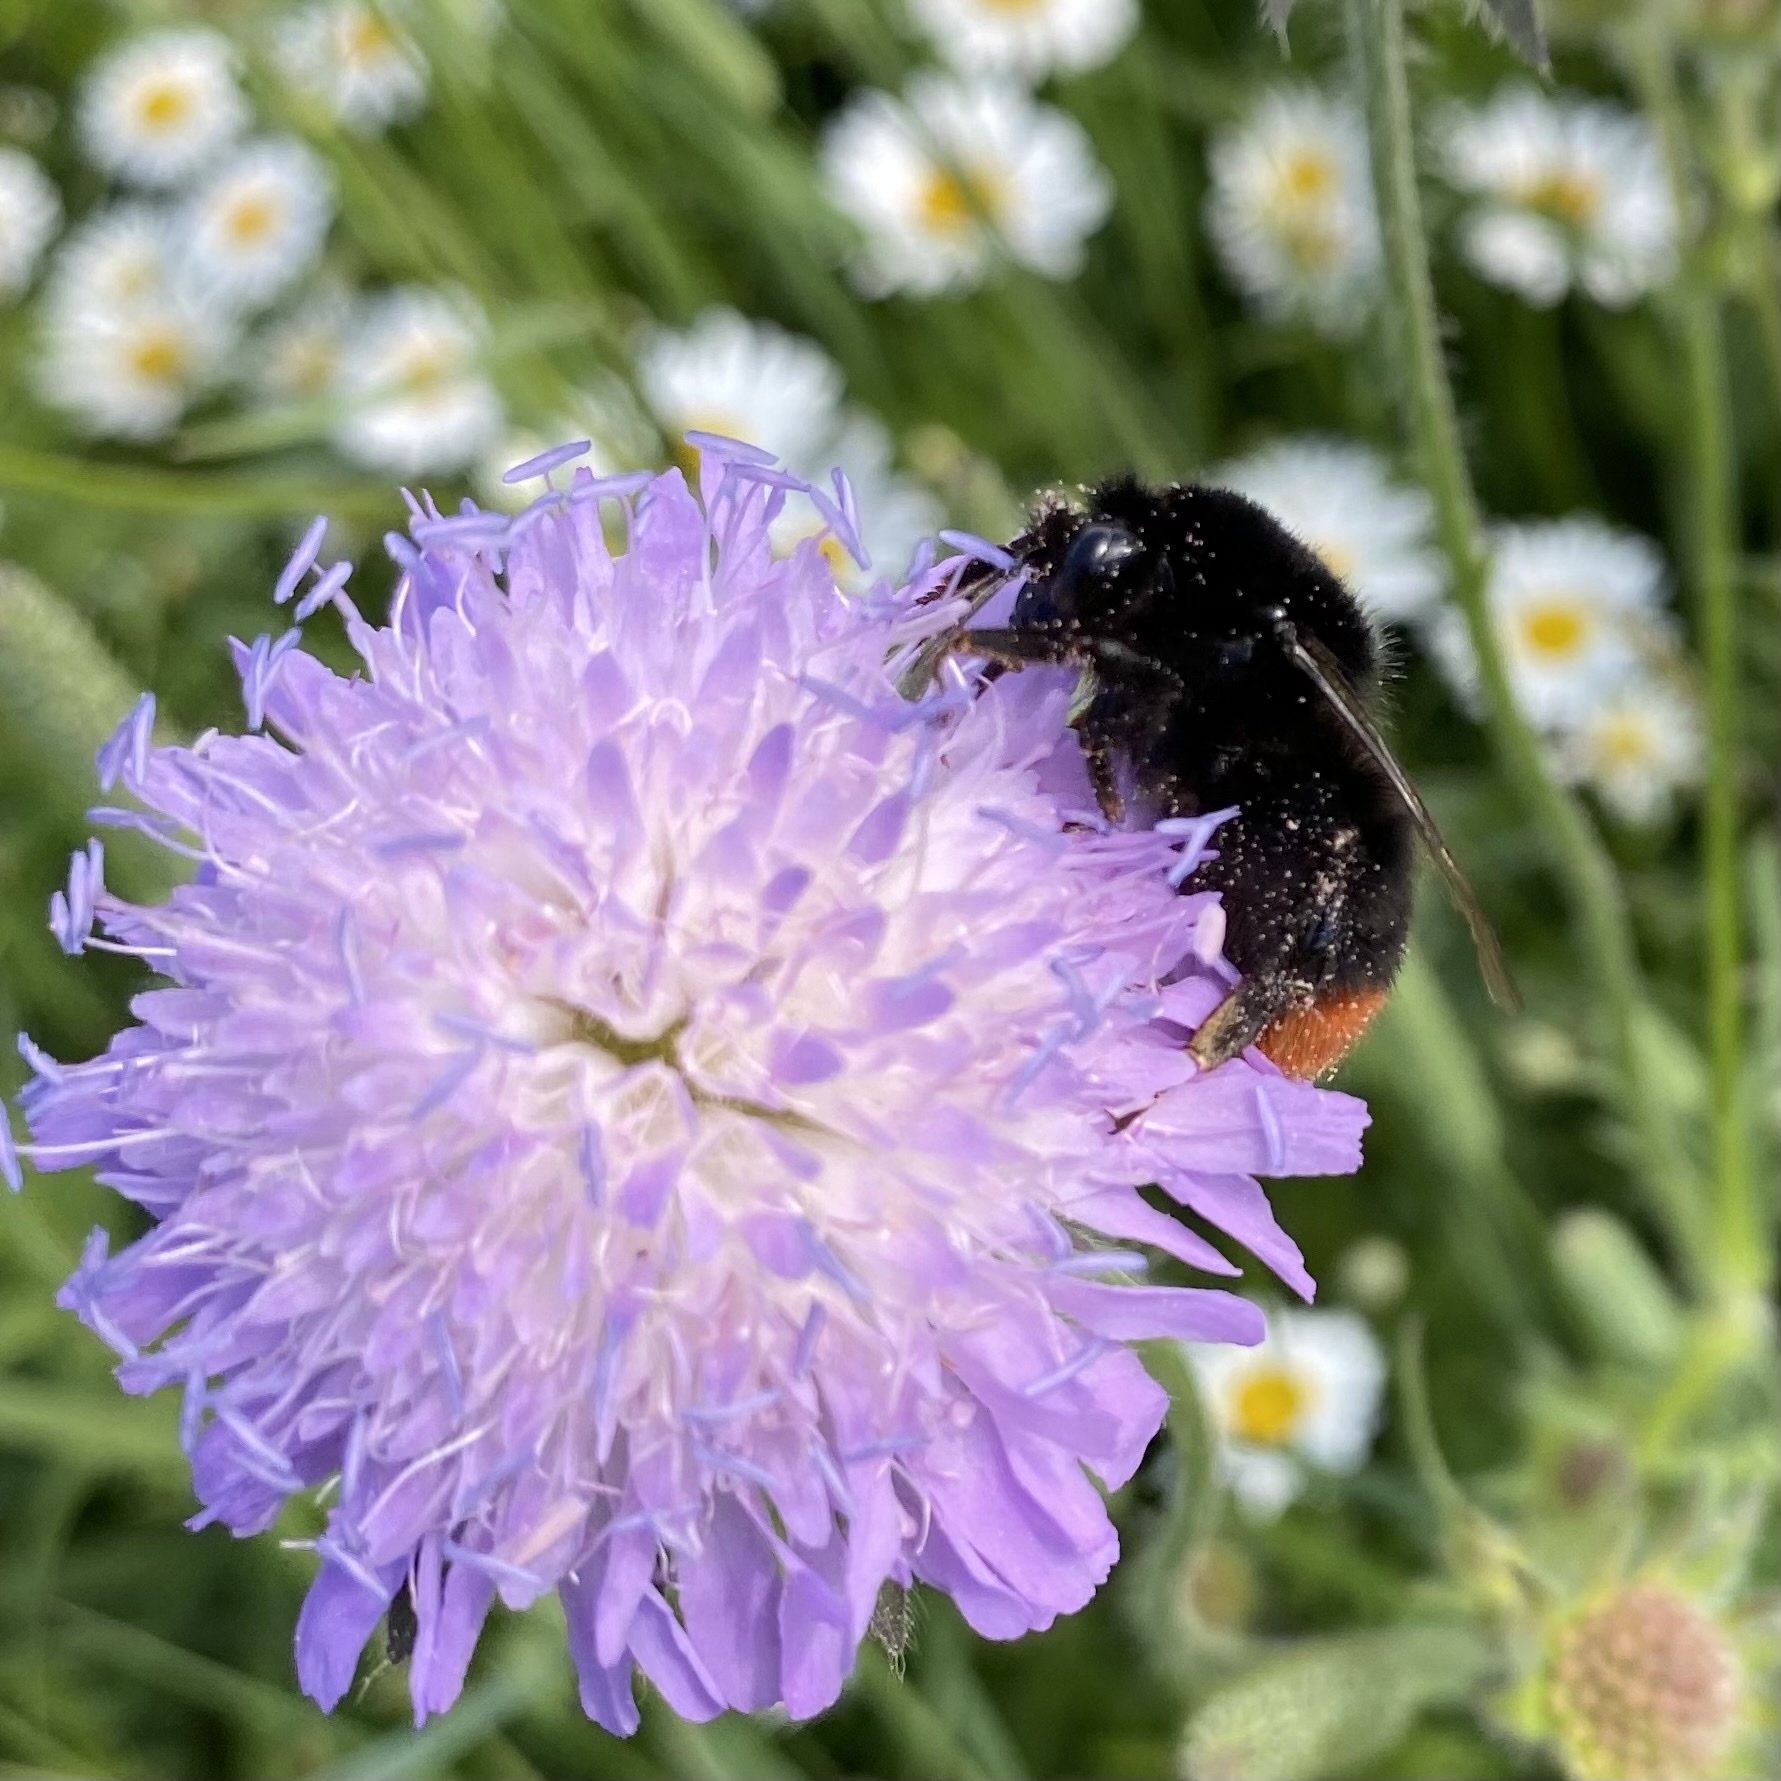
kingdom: Animalia
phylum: Arthropoda
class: Insecta
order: Hymenoptera
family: Apidae
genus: Bombus
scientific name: Bombus lapidarius
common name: Large red-tailed humble-bee
